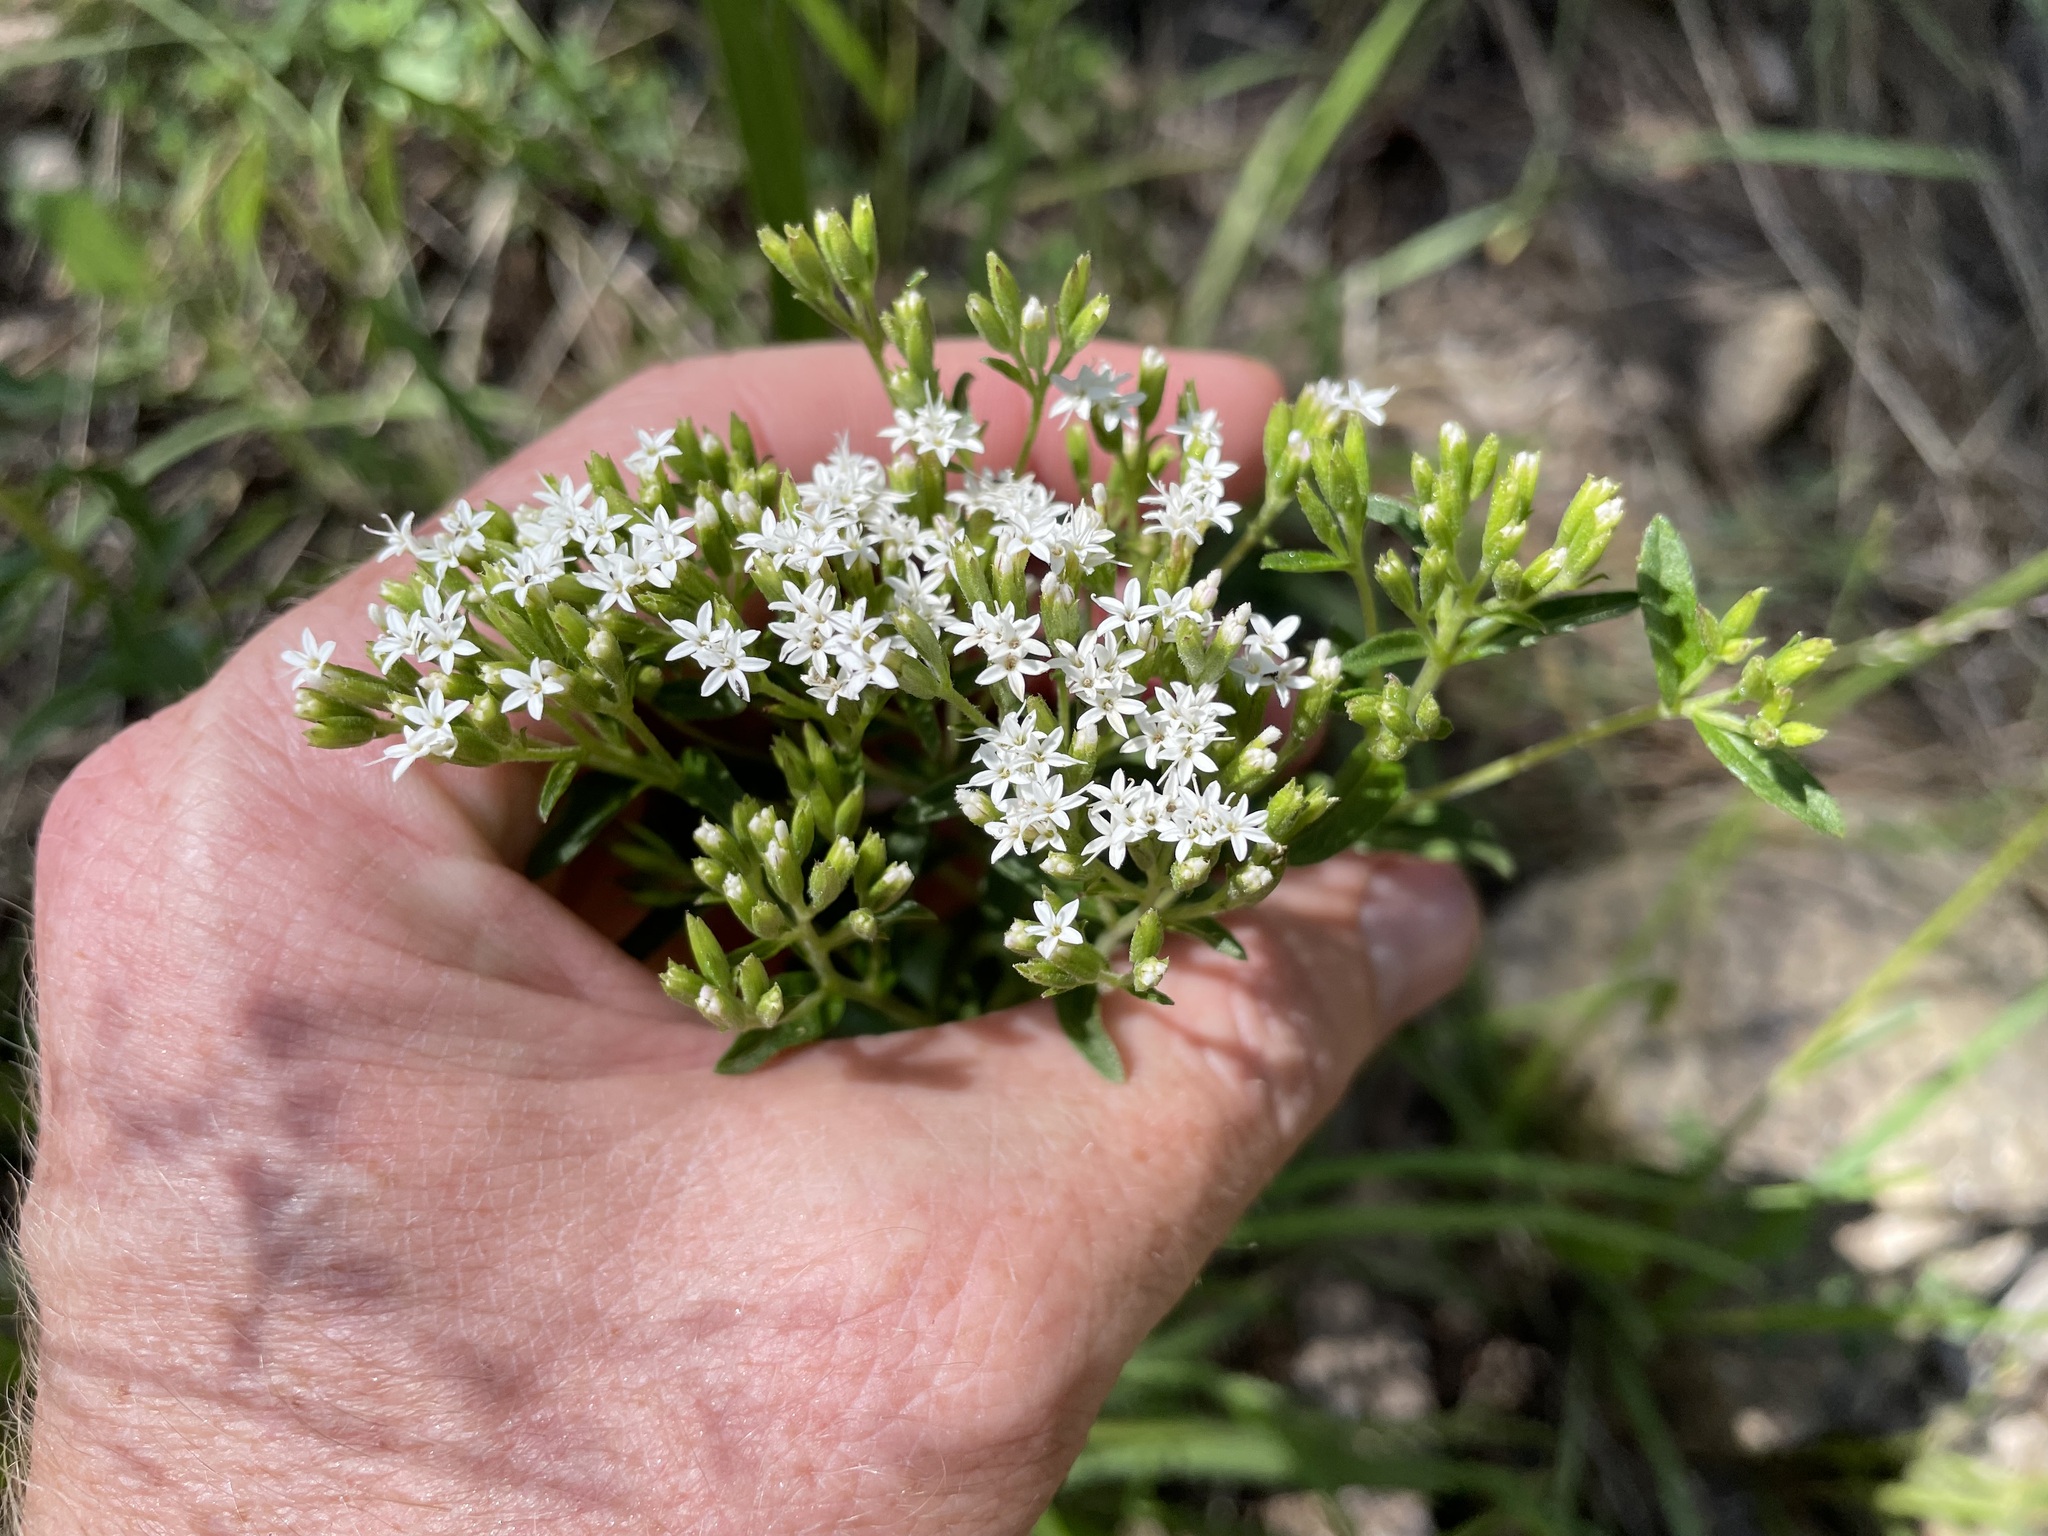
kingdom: Plantae
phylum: Tracheophyta
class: Magnoliopsida
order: Asterales
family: Asteraceae
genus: Stevia
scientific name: Stevia serrata
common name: Sawtooth candyleaf
